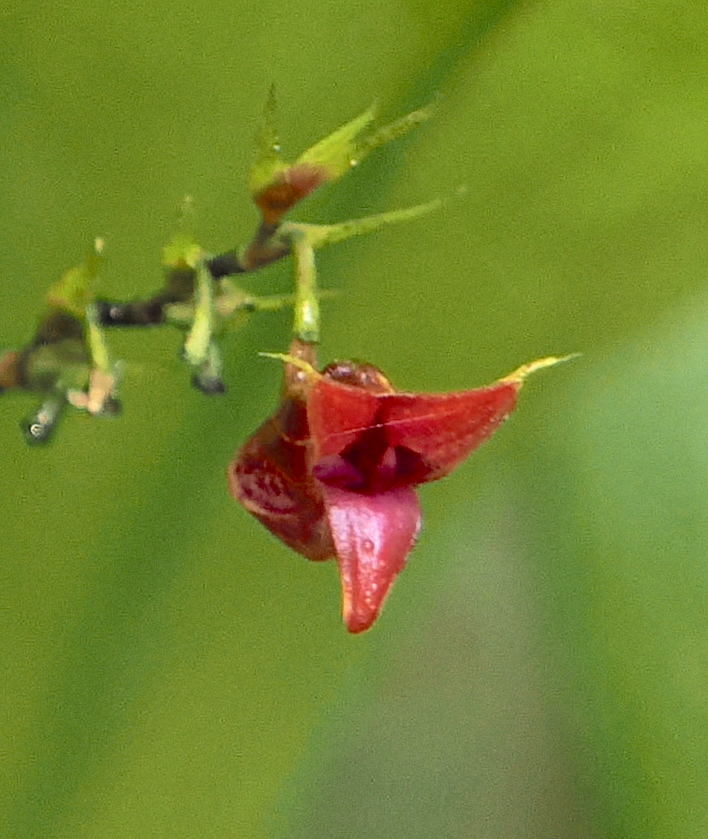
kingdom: Plantae
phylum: Tracheophyta
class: Liliopsida
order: Asparagales
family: Orchidaceae
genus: Scaphosepalum
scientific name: Scaphosepalum odontochilum
